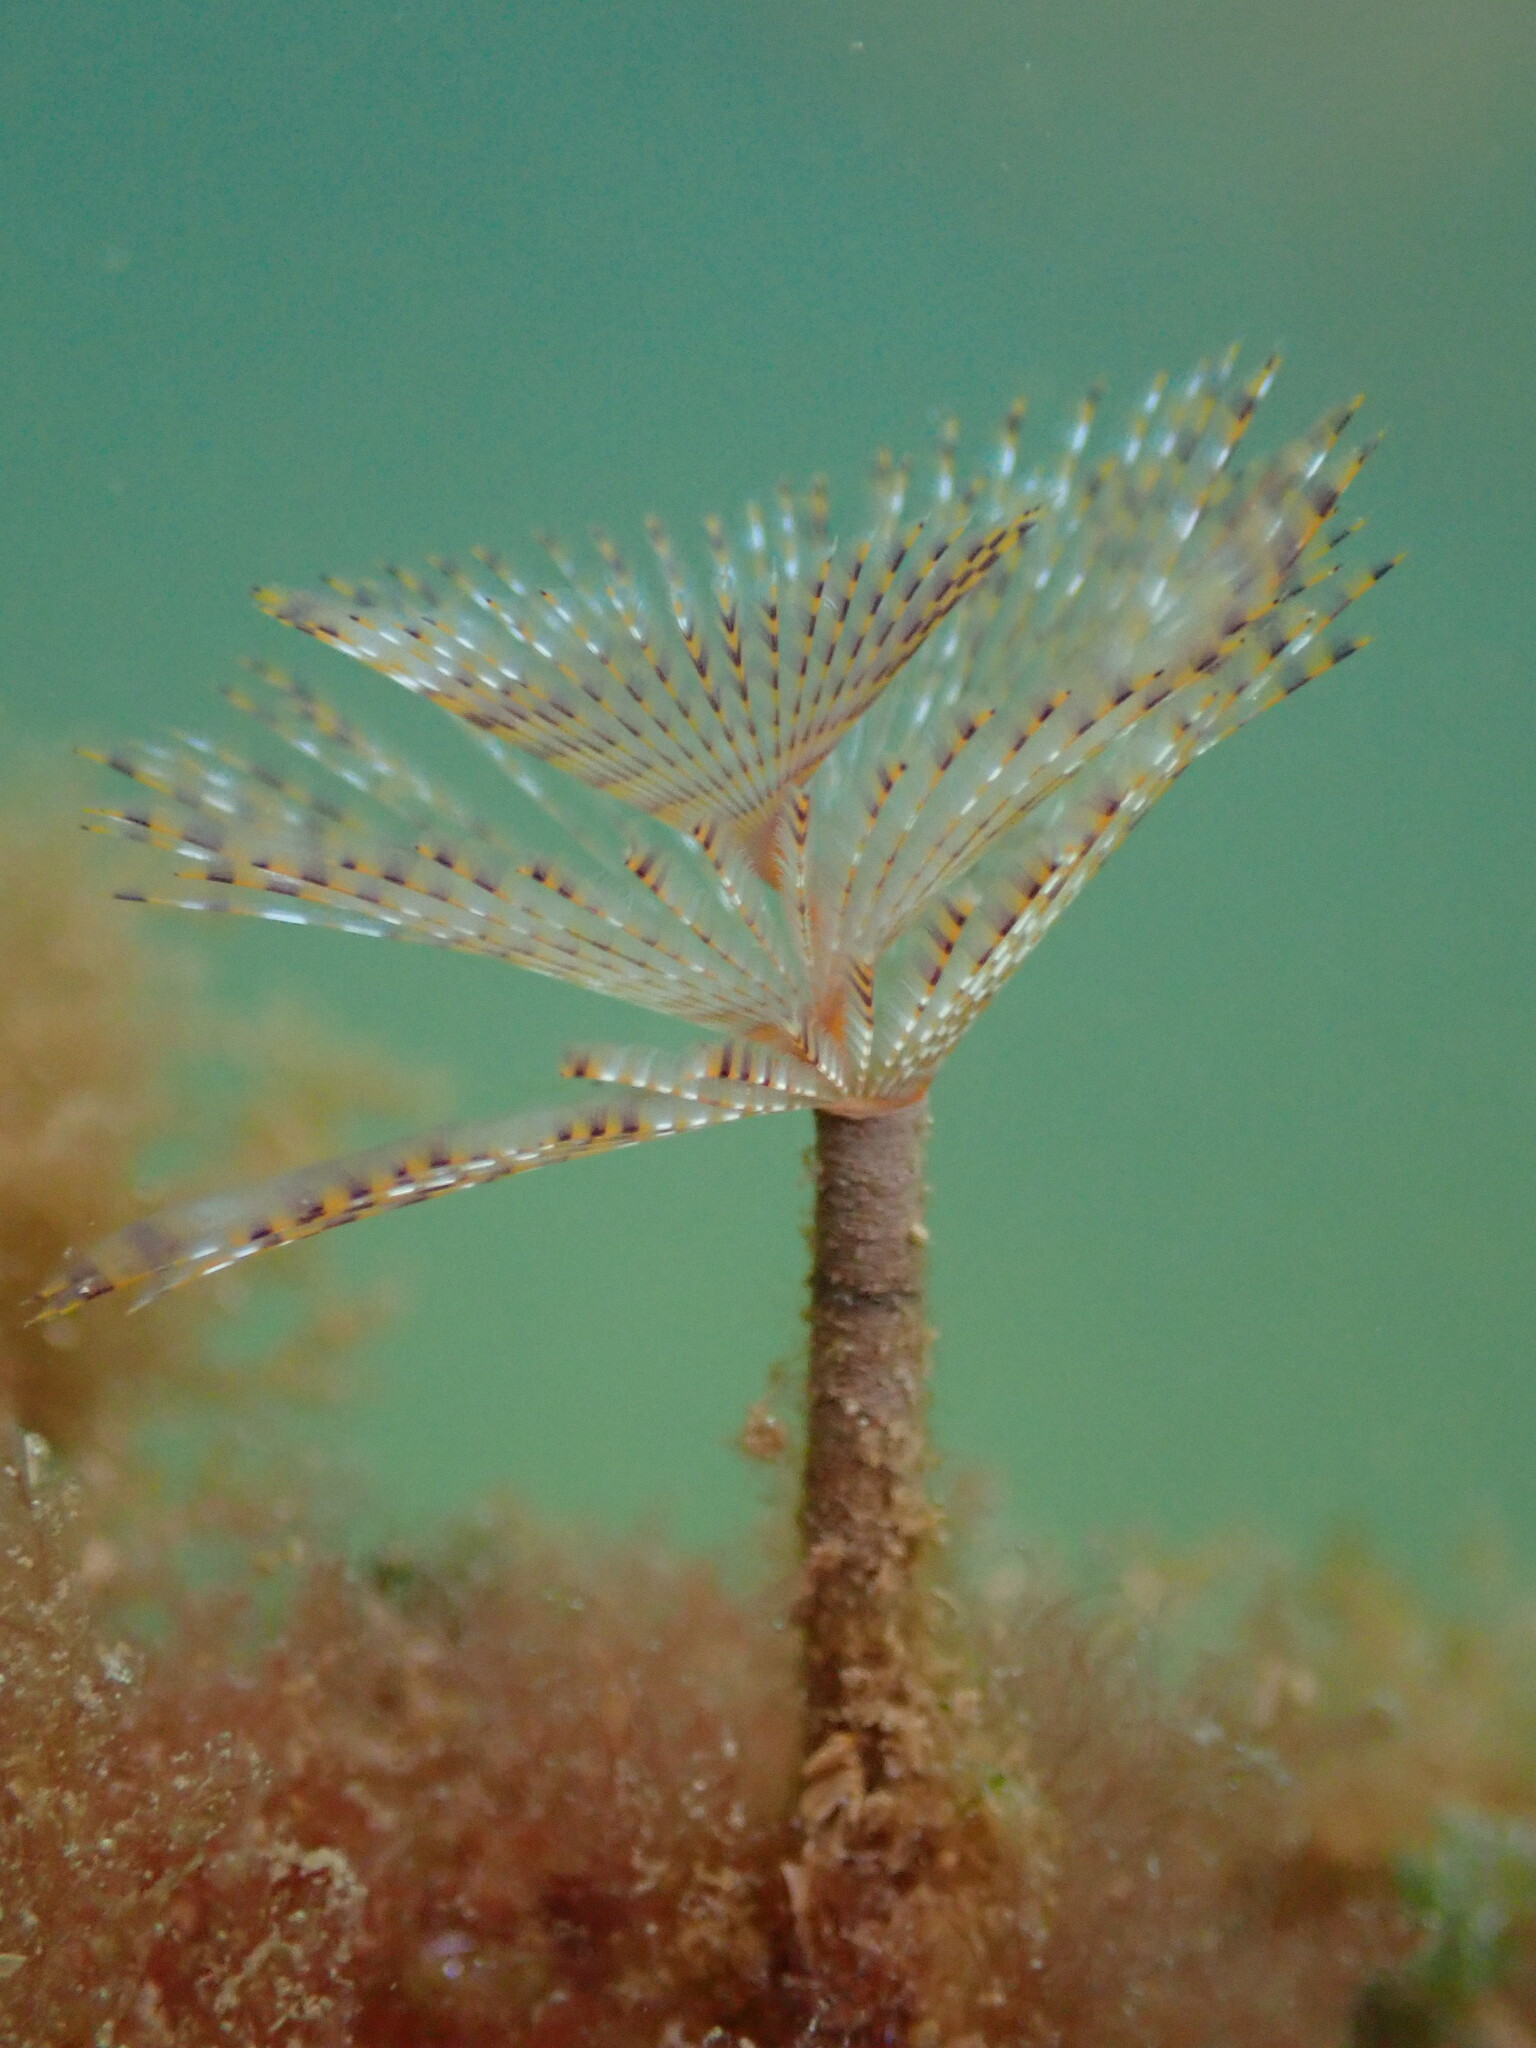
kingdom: Animalia
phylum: Annelida
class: Polychaeta
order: Sabellida
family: Sabellidae
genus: Sabella
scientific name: Sabella spallanzanii
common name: Feather duster worm
